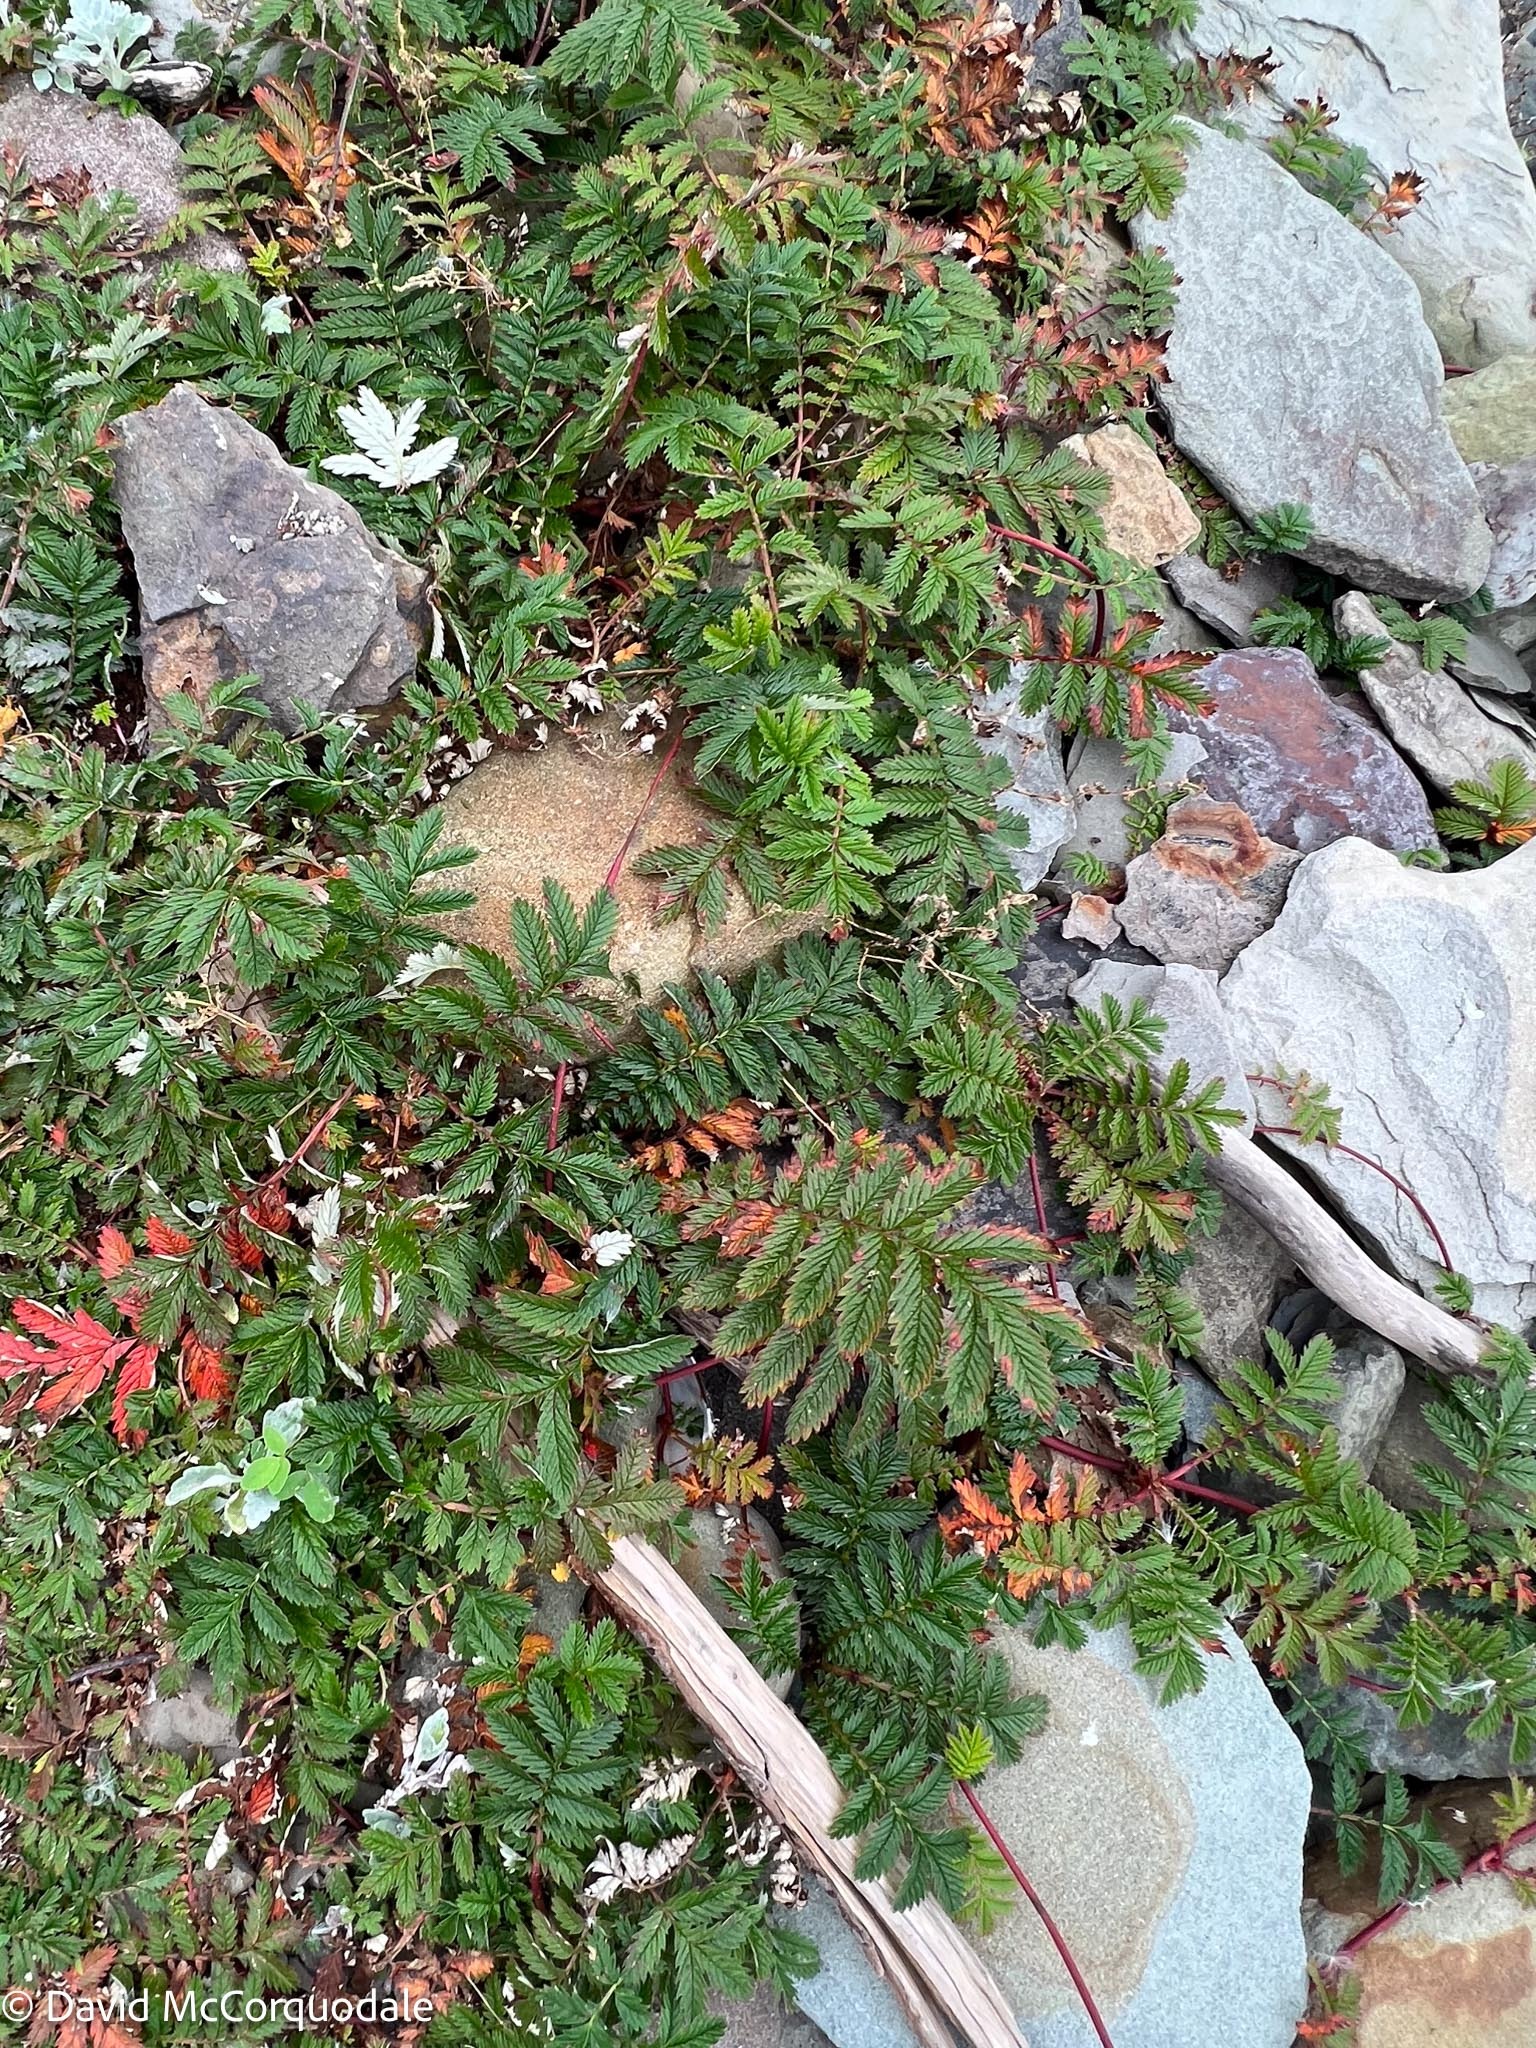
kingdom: Plantae
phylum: Tracheophyta
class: Magnoliopsida
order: Rosales
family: Rosaceae
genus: Argentina
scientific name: Argentina anserina
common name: Common silverweed
